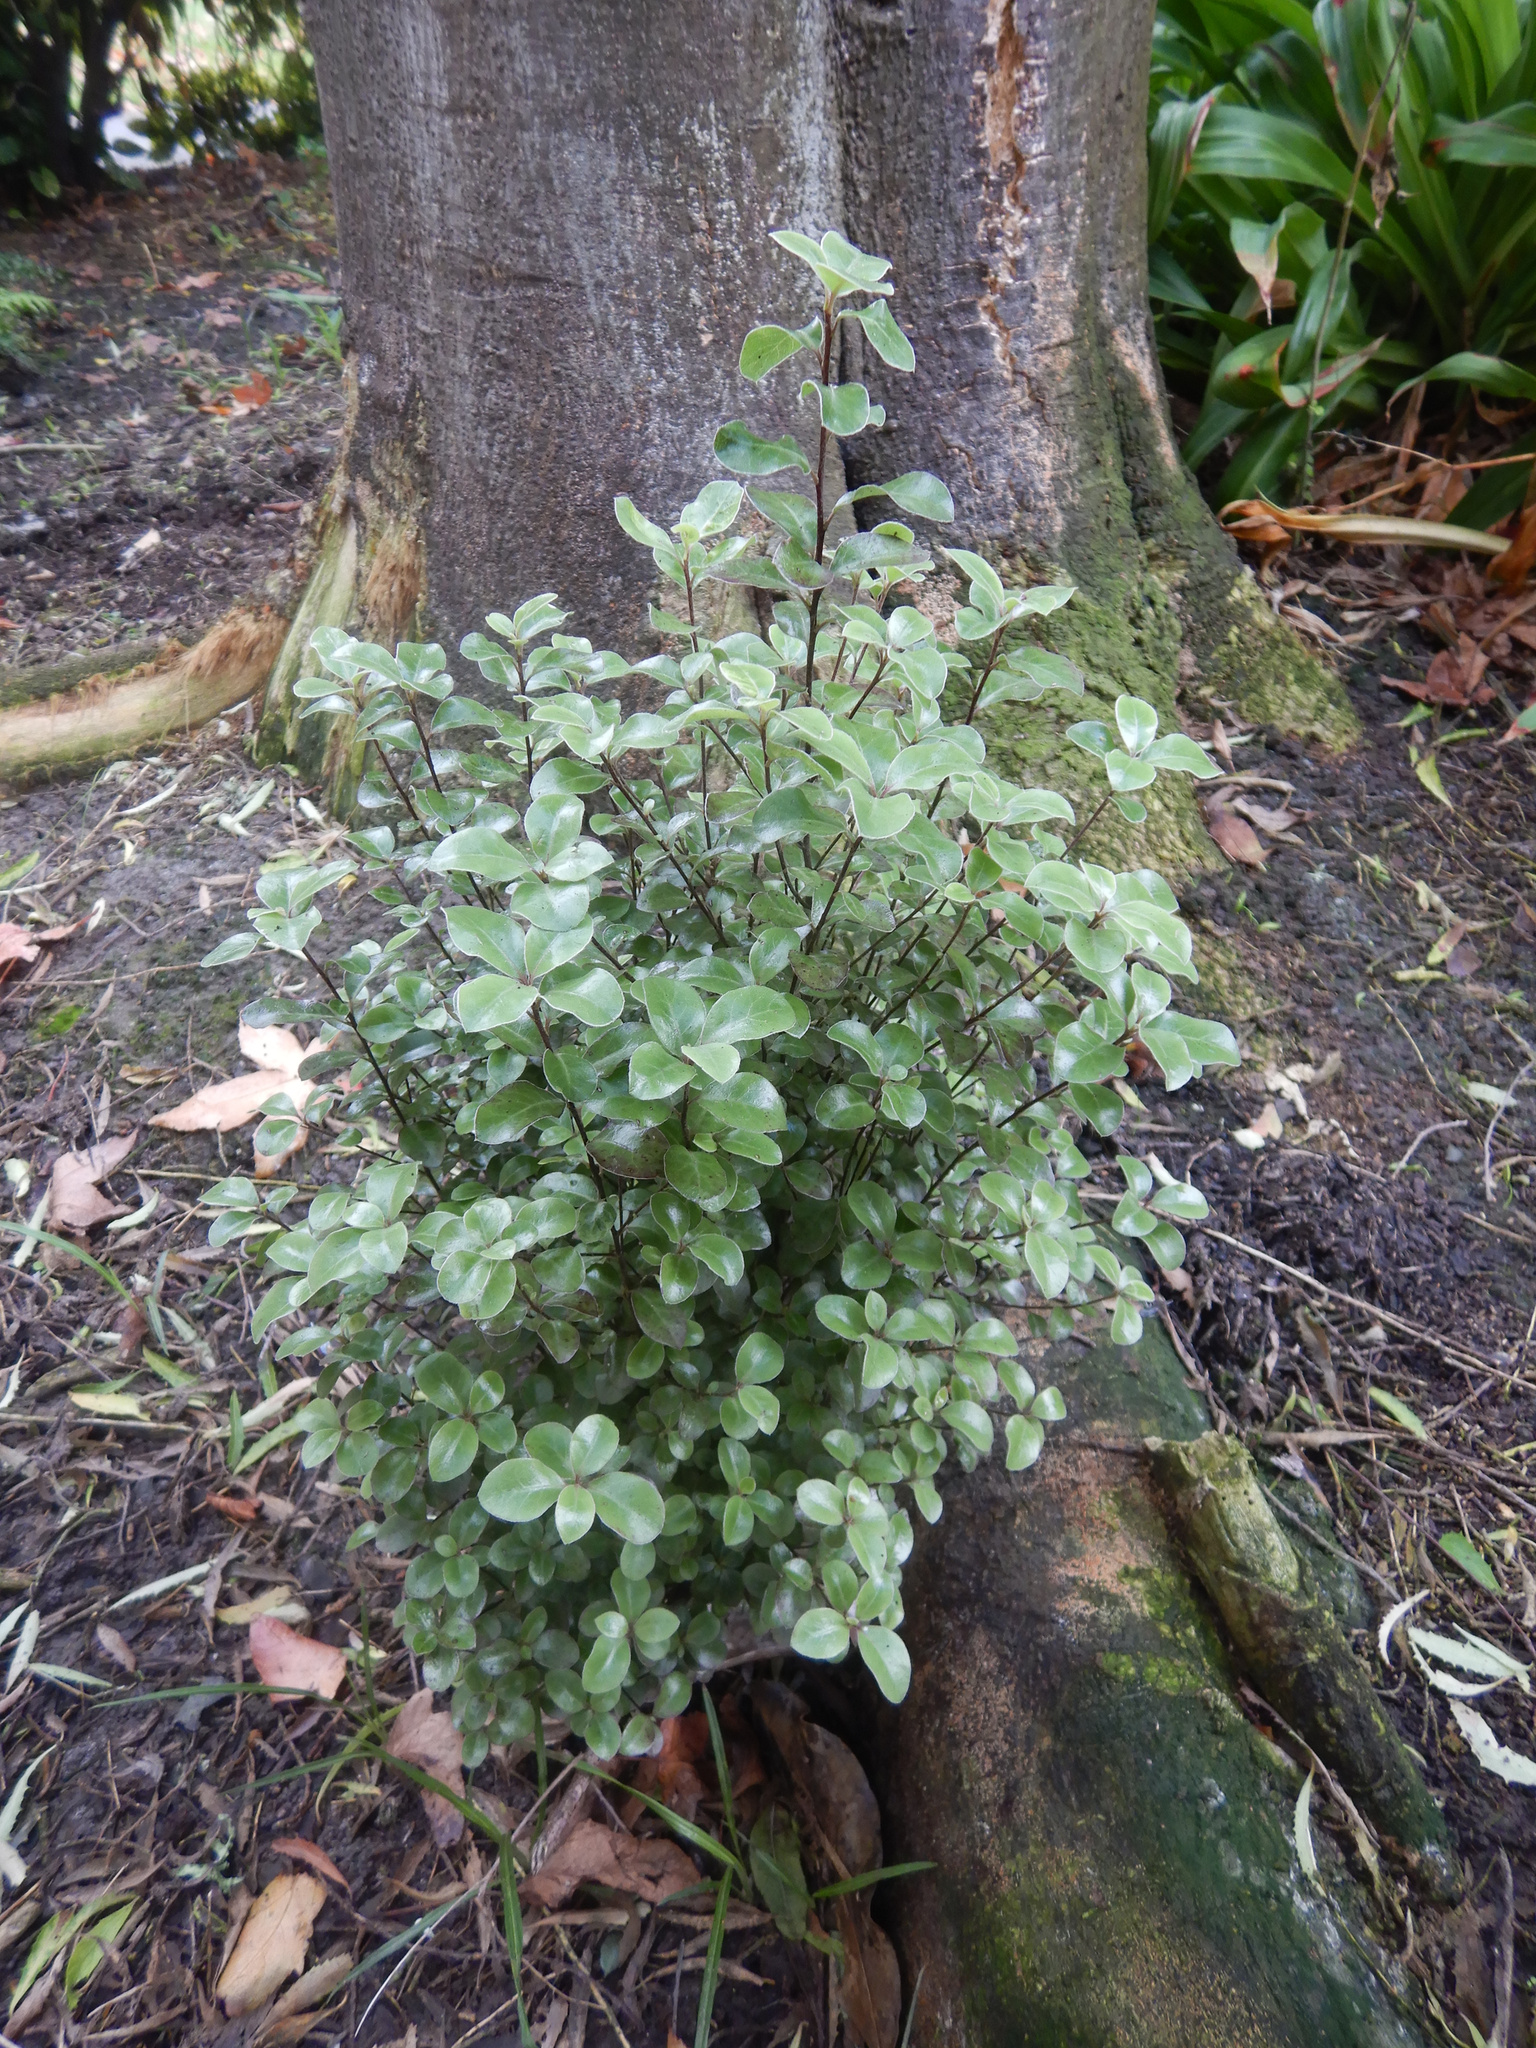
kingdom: Plantae
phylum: Tracheophyta
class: Magnoliopsida
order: Apiales
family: Pittosporaceae
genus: Pittosporum
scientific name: Pittosporum tenuifolium
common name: Kohuhu
